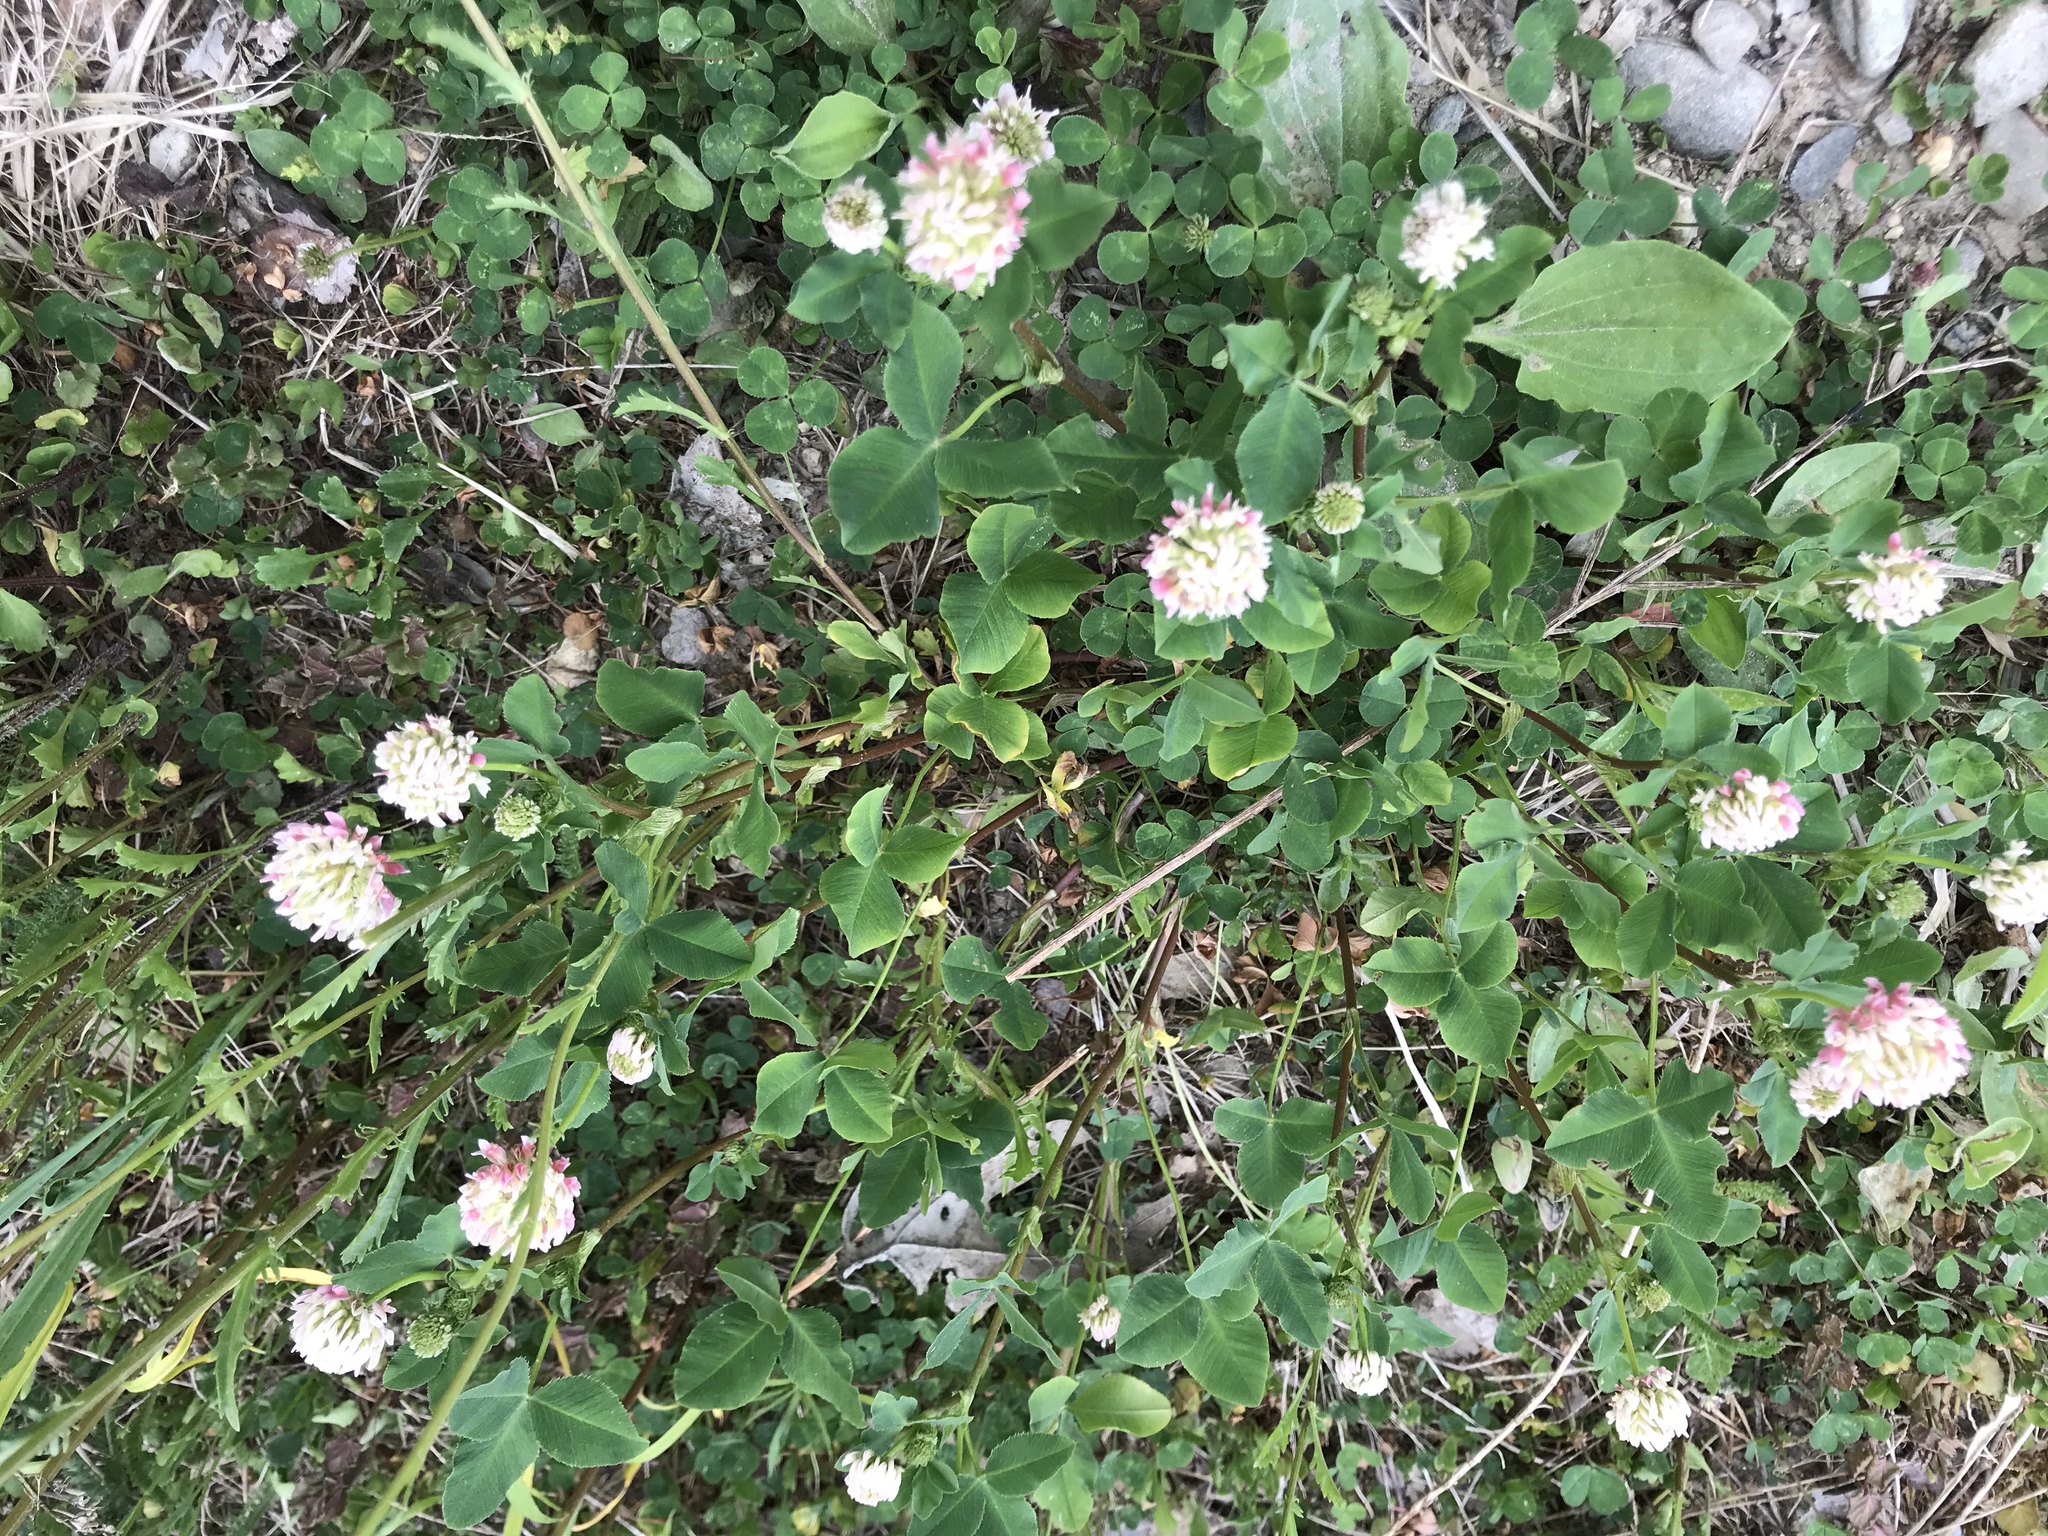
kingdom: Plantae
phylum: Tracheophyta
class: Magnoliopsida
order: Fabales
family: Fabaceae
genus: Trifolium
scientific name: Trifolium hybridum
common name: Alsike clover
